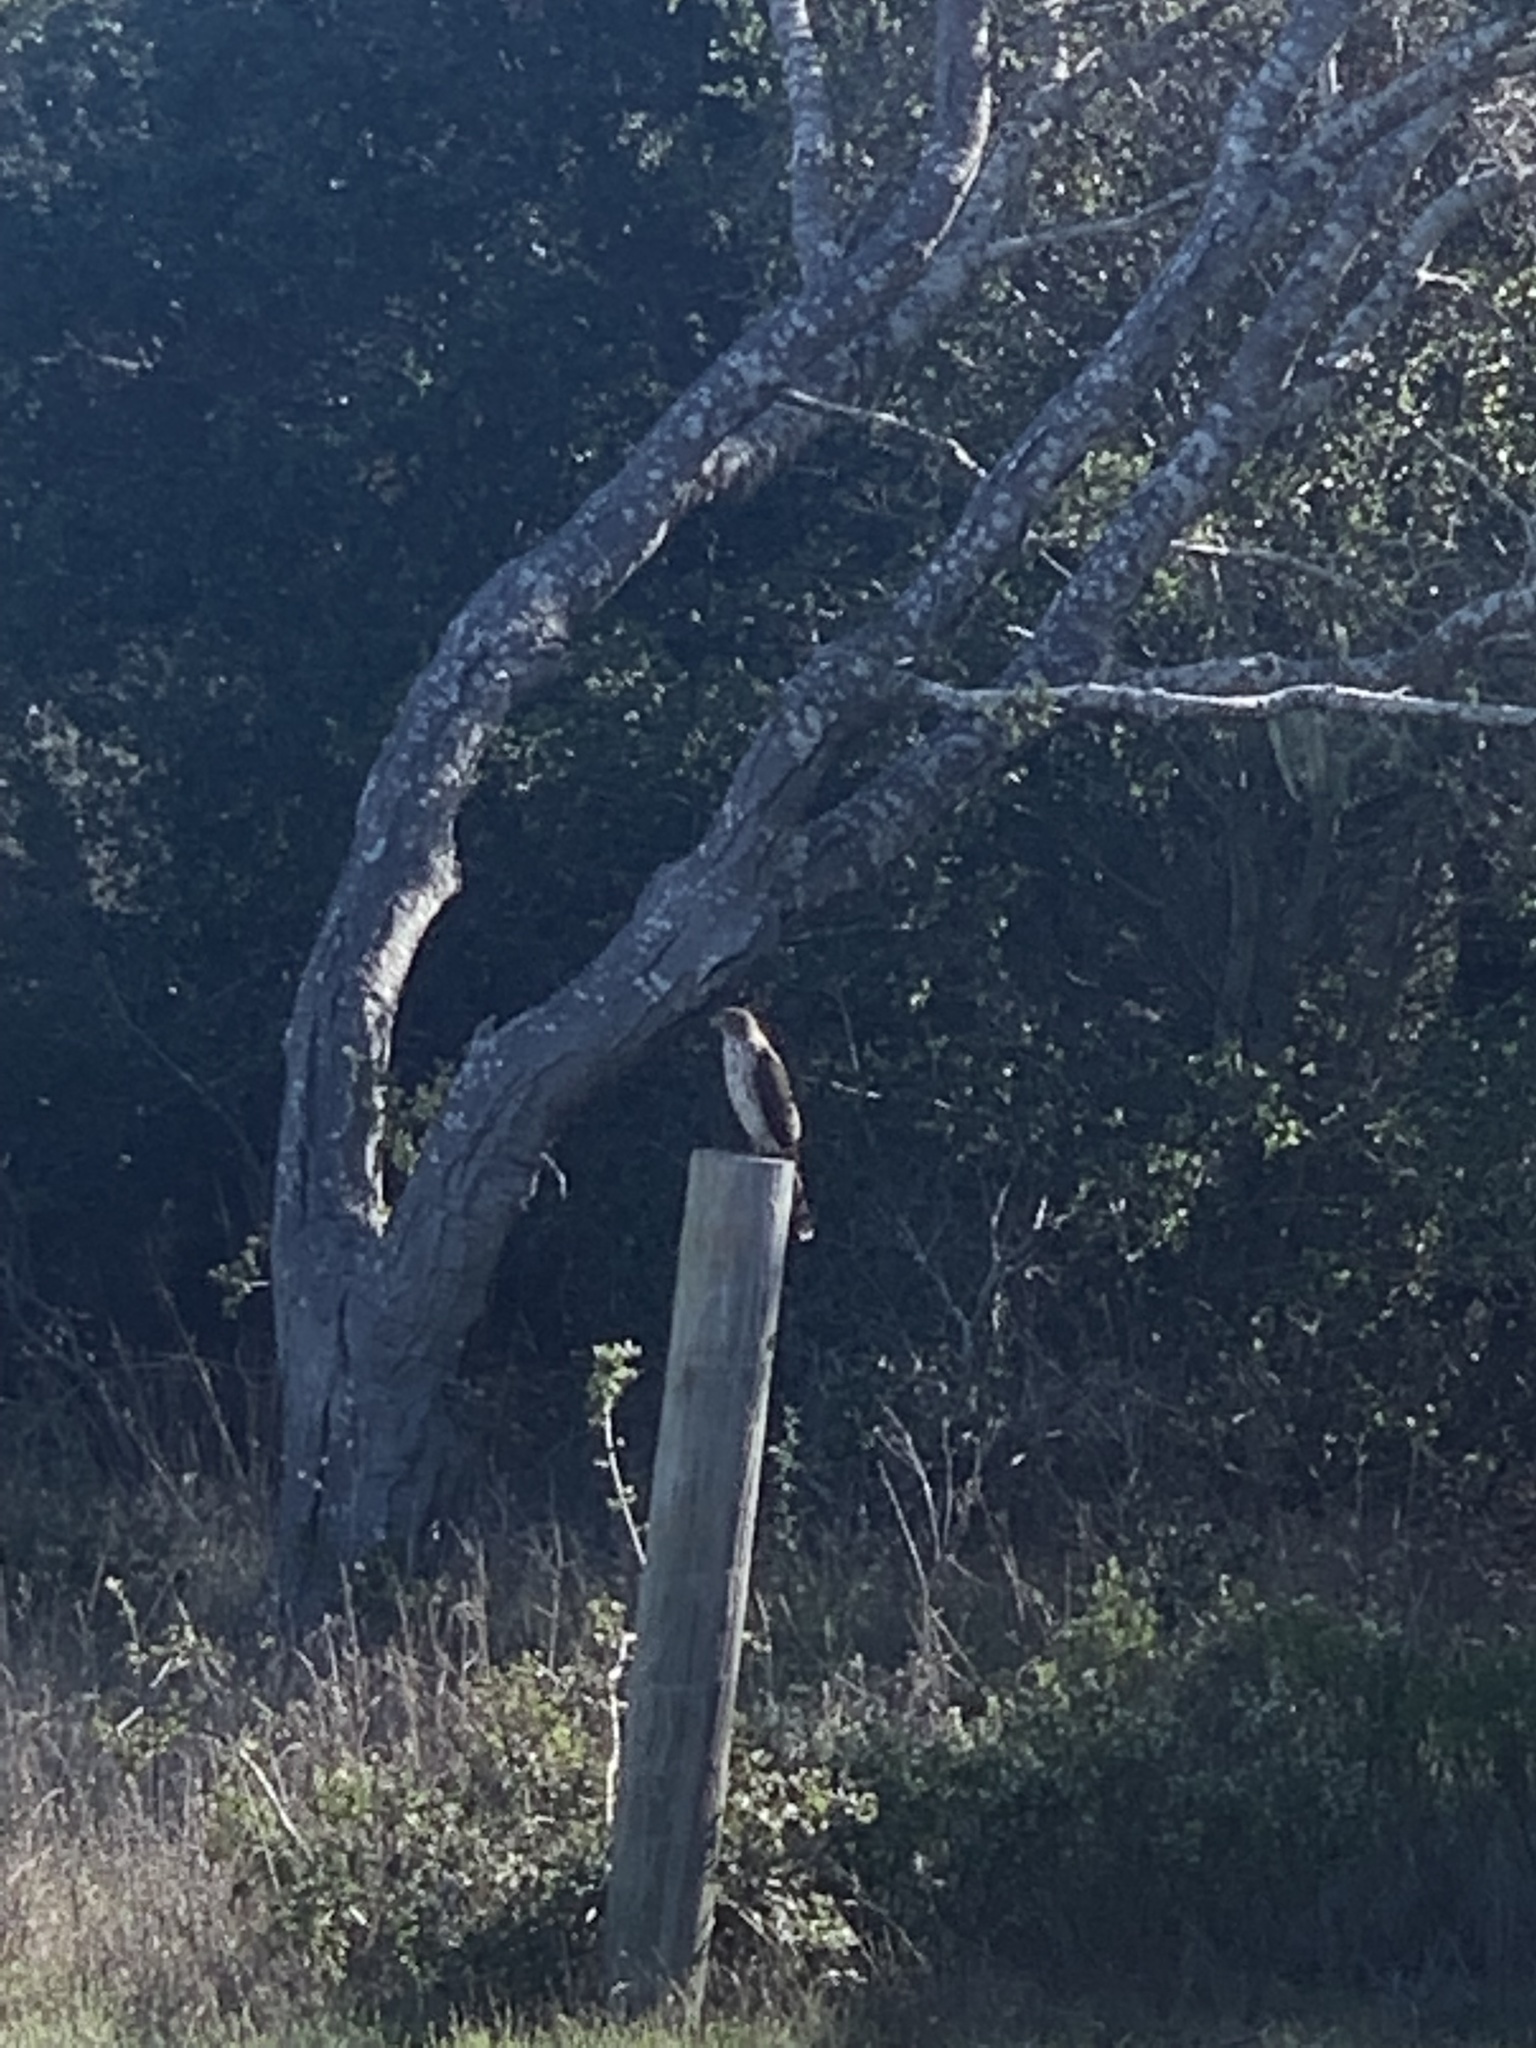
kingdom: Animalia
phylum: Chordata
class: Aves
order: Accipitriformes
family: Accipitridae
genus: Accipiter
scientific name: Accipiter cooperii
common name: Cooper's hawk
